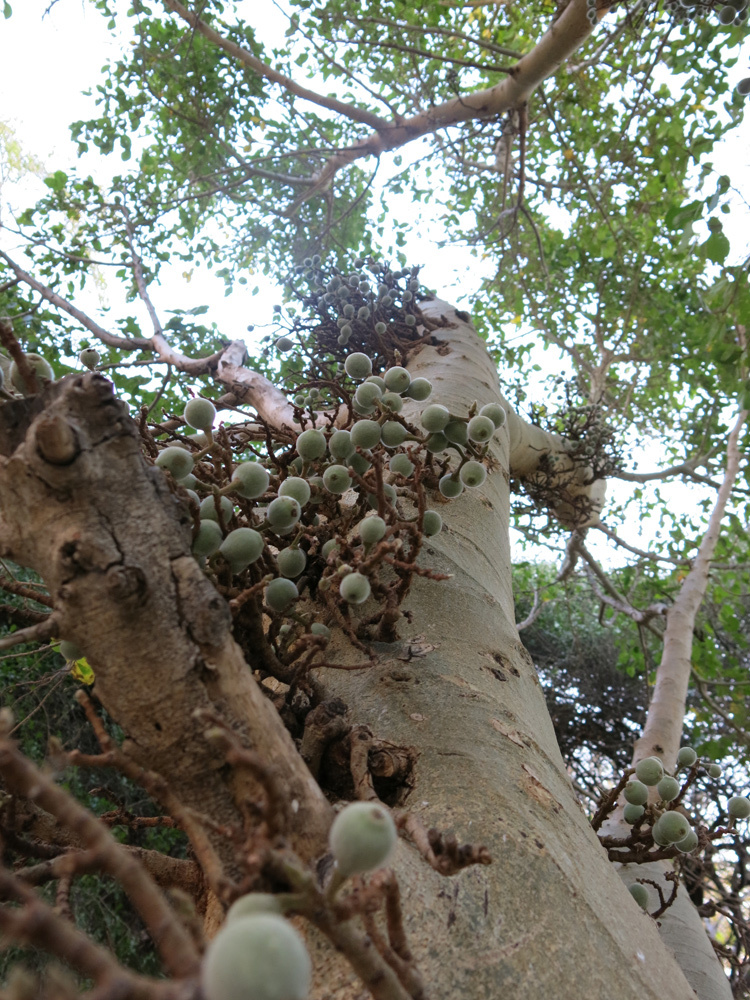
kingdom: Plantae
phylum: Tracheophyta
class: Magnoliopsida
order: Rosales
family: Moraceae
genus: Ficus
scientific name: Ficus sycomorus
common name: Sycomore
